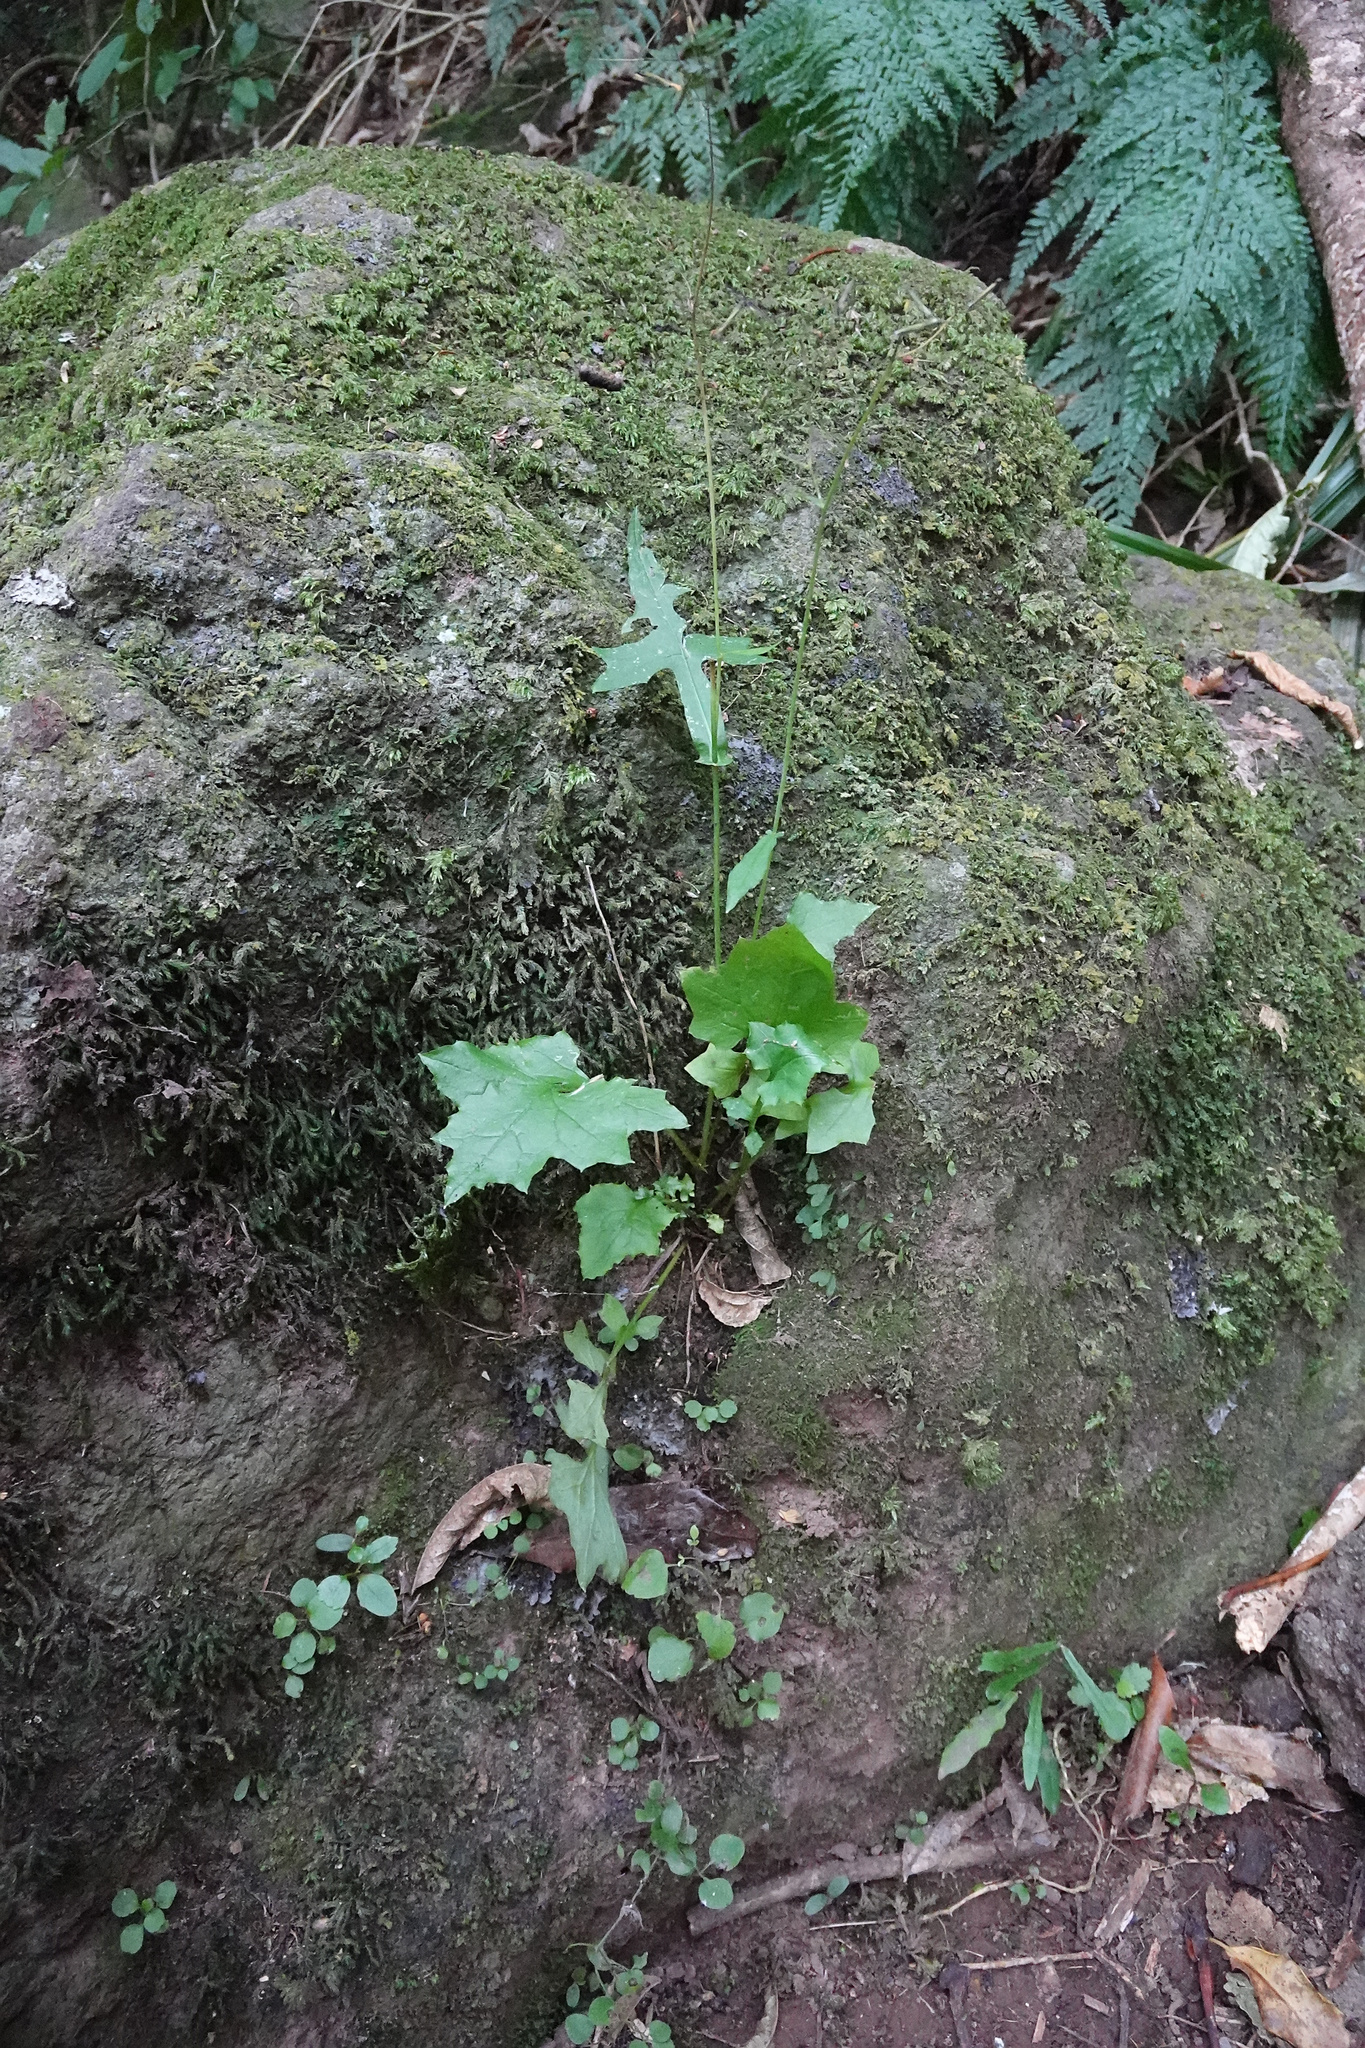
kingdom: Plantae
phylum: Tracheophyta
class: Magnoliopsida
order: Asterales
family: Asteraceae
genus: Mycelis
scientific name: Mycelis muralis
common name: Wall lettuce
